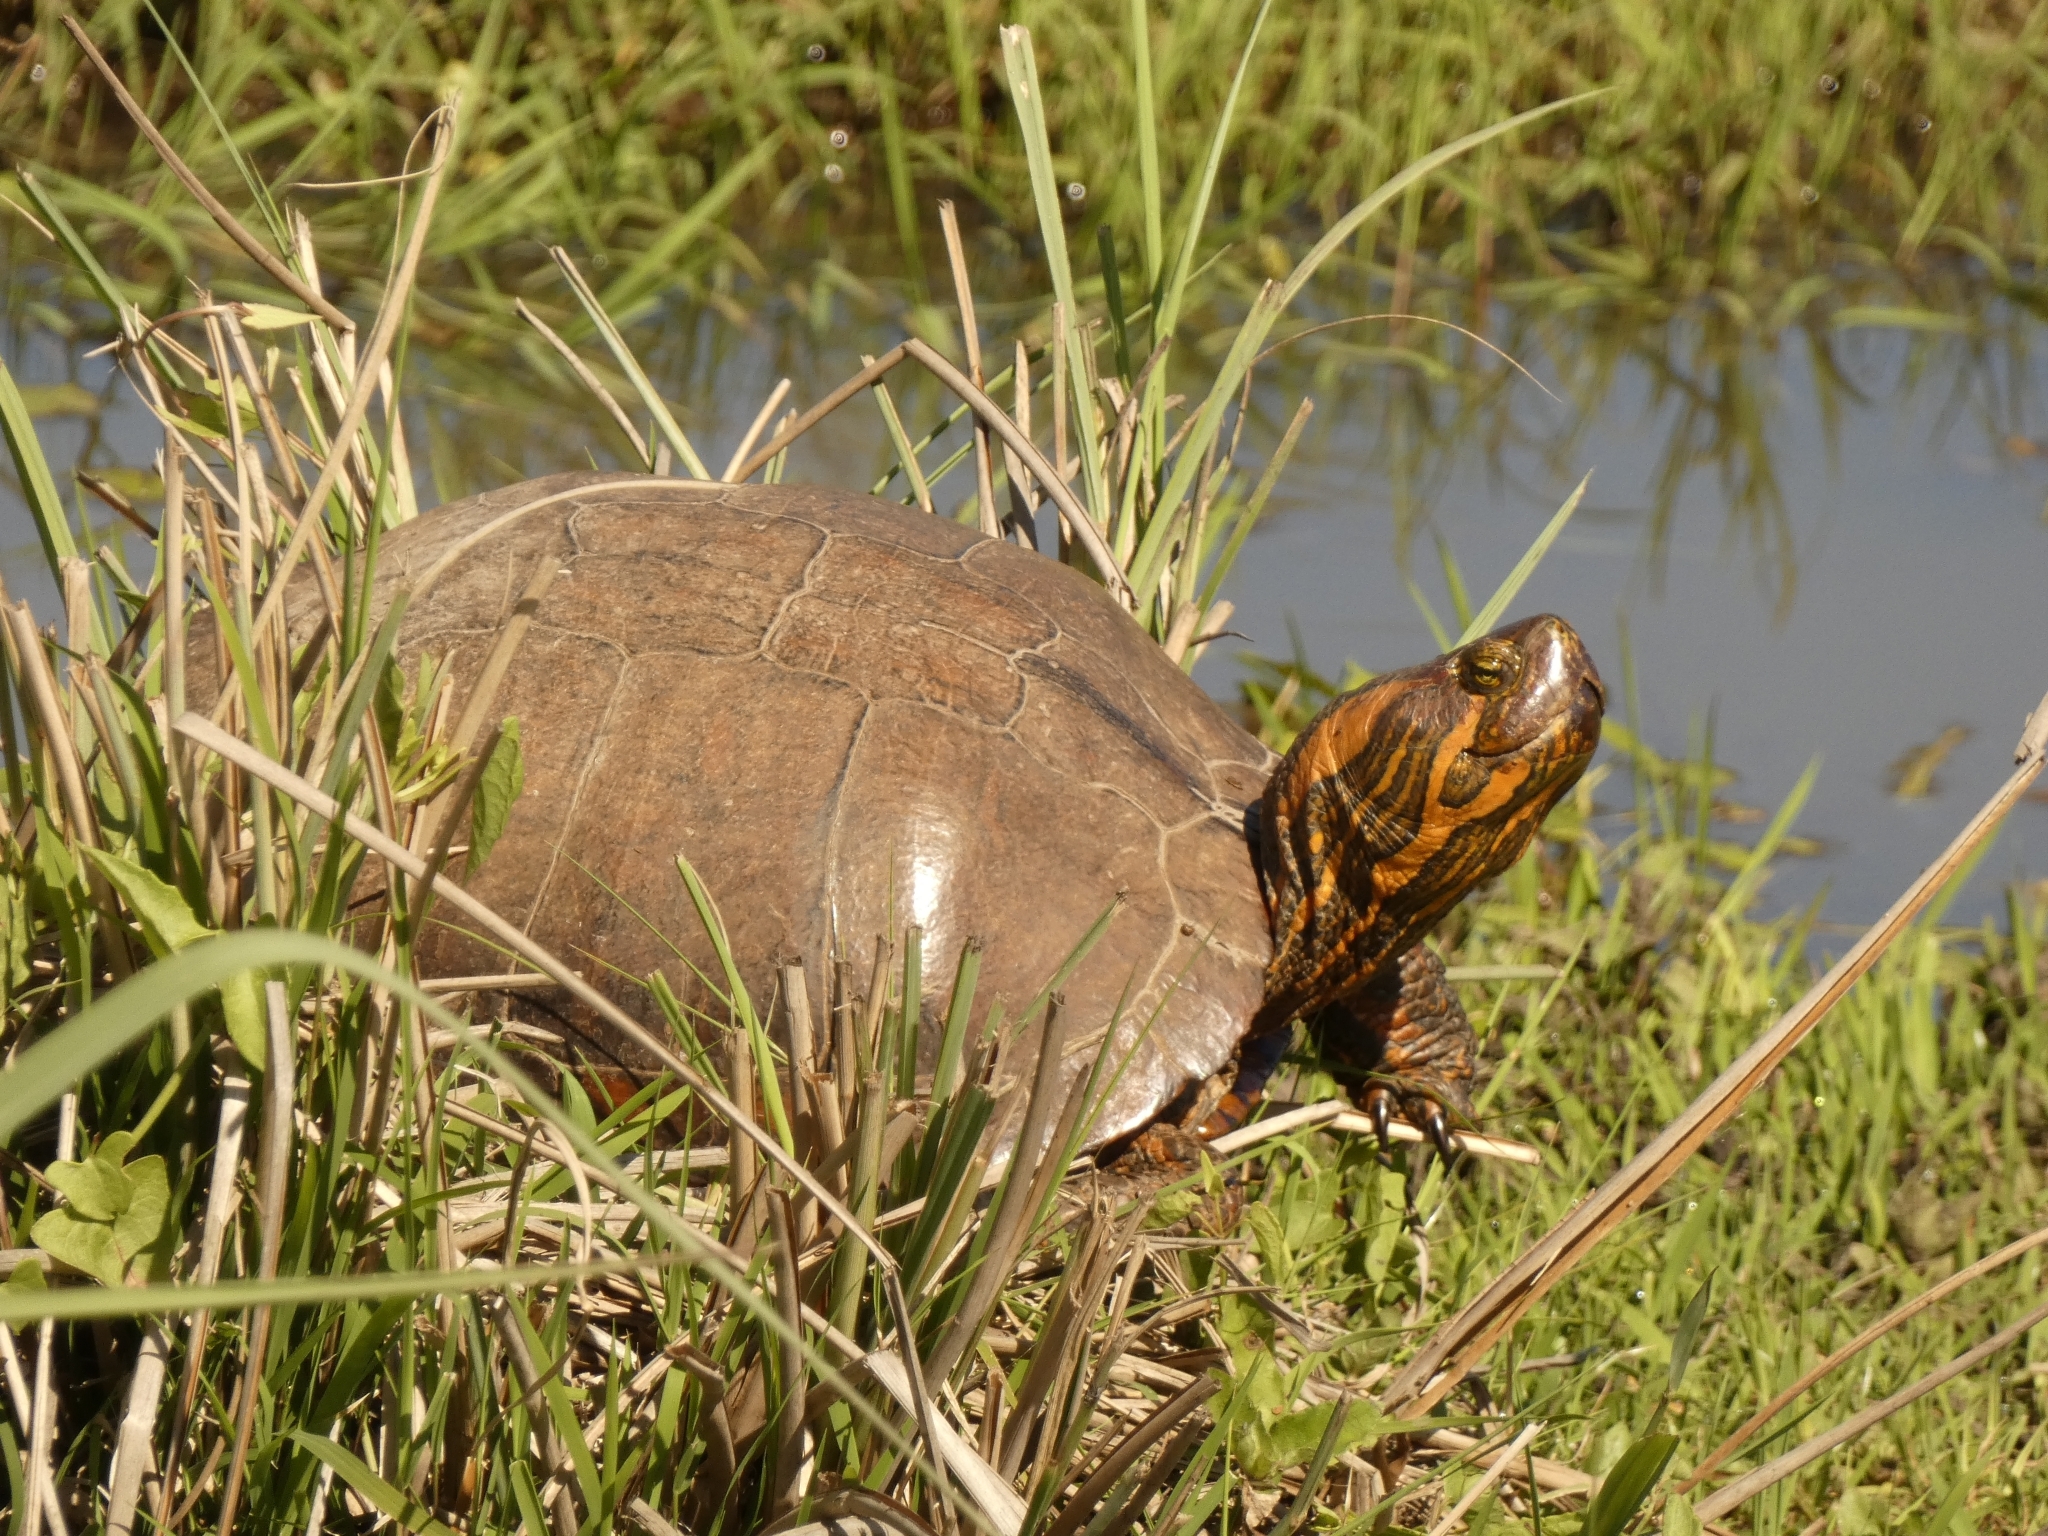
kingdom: Animalia
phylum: Chordata
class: Testudines
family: Emydidae
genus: Trachemys
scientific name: Trachemys dorbigni
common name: Black-bellied slider
